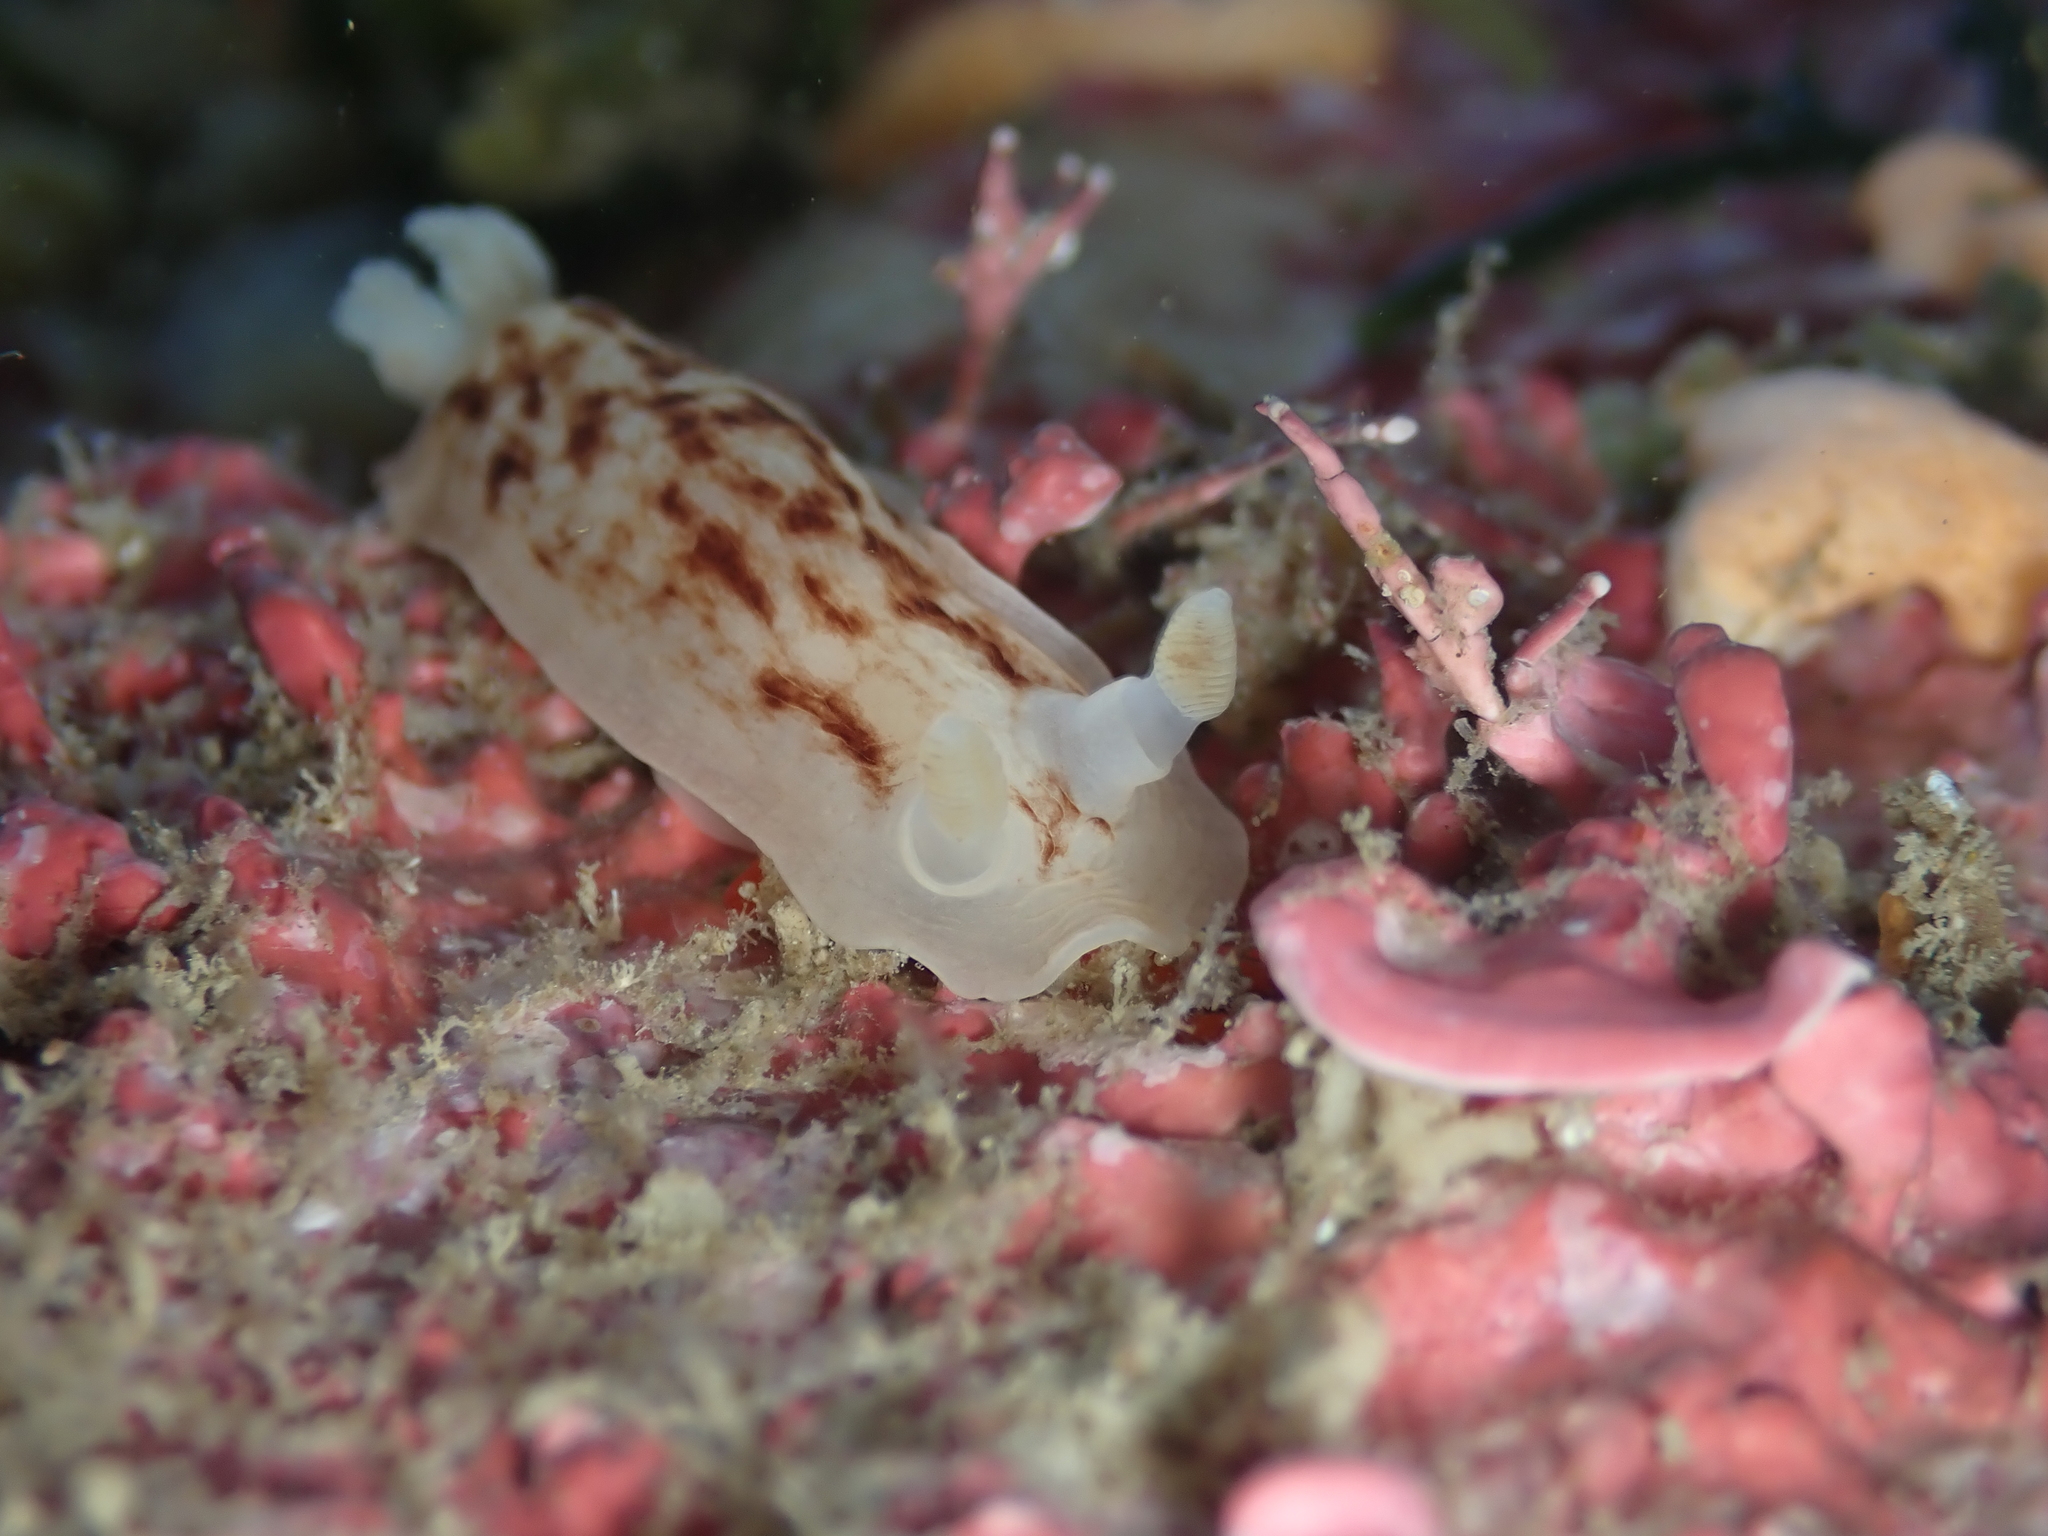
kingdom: Animalia
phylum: Mollusca
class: Gastropoda
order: Nudibranchia
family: Dorididae
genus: Aphelodoris
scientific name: Aphelodoris luctuosa
